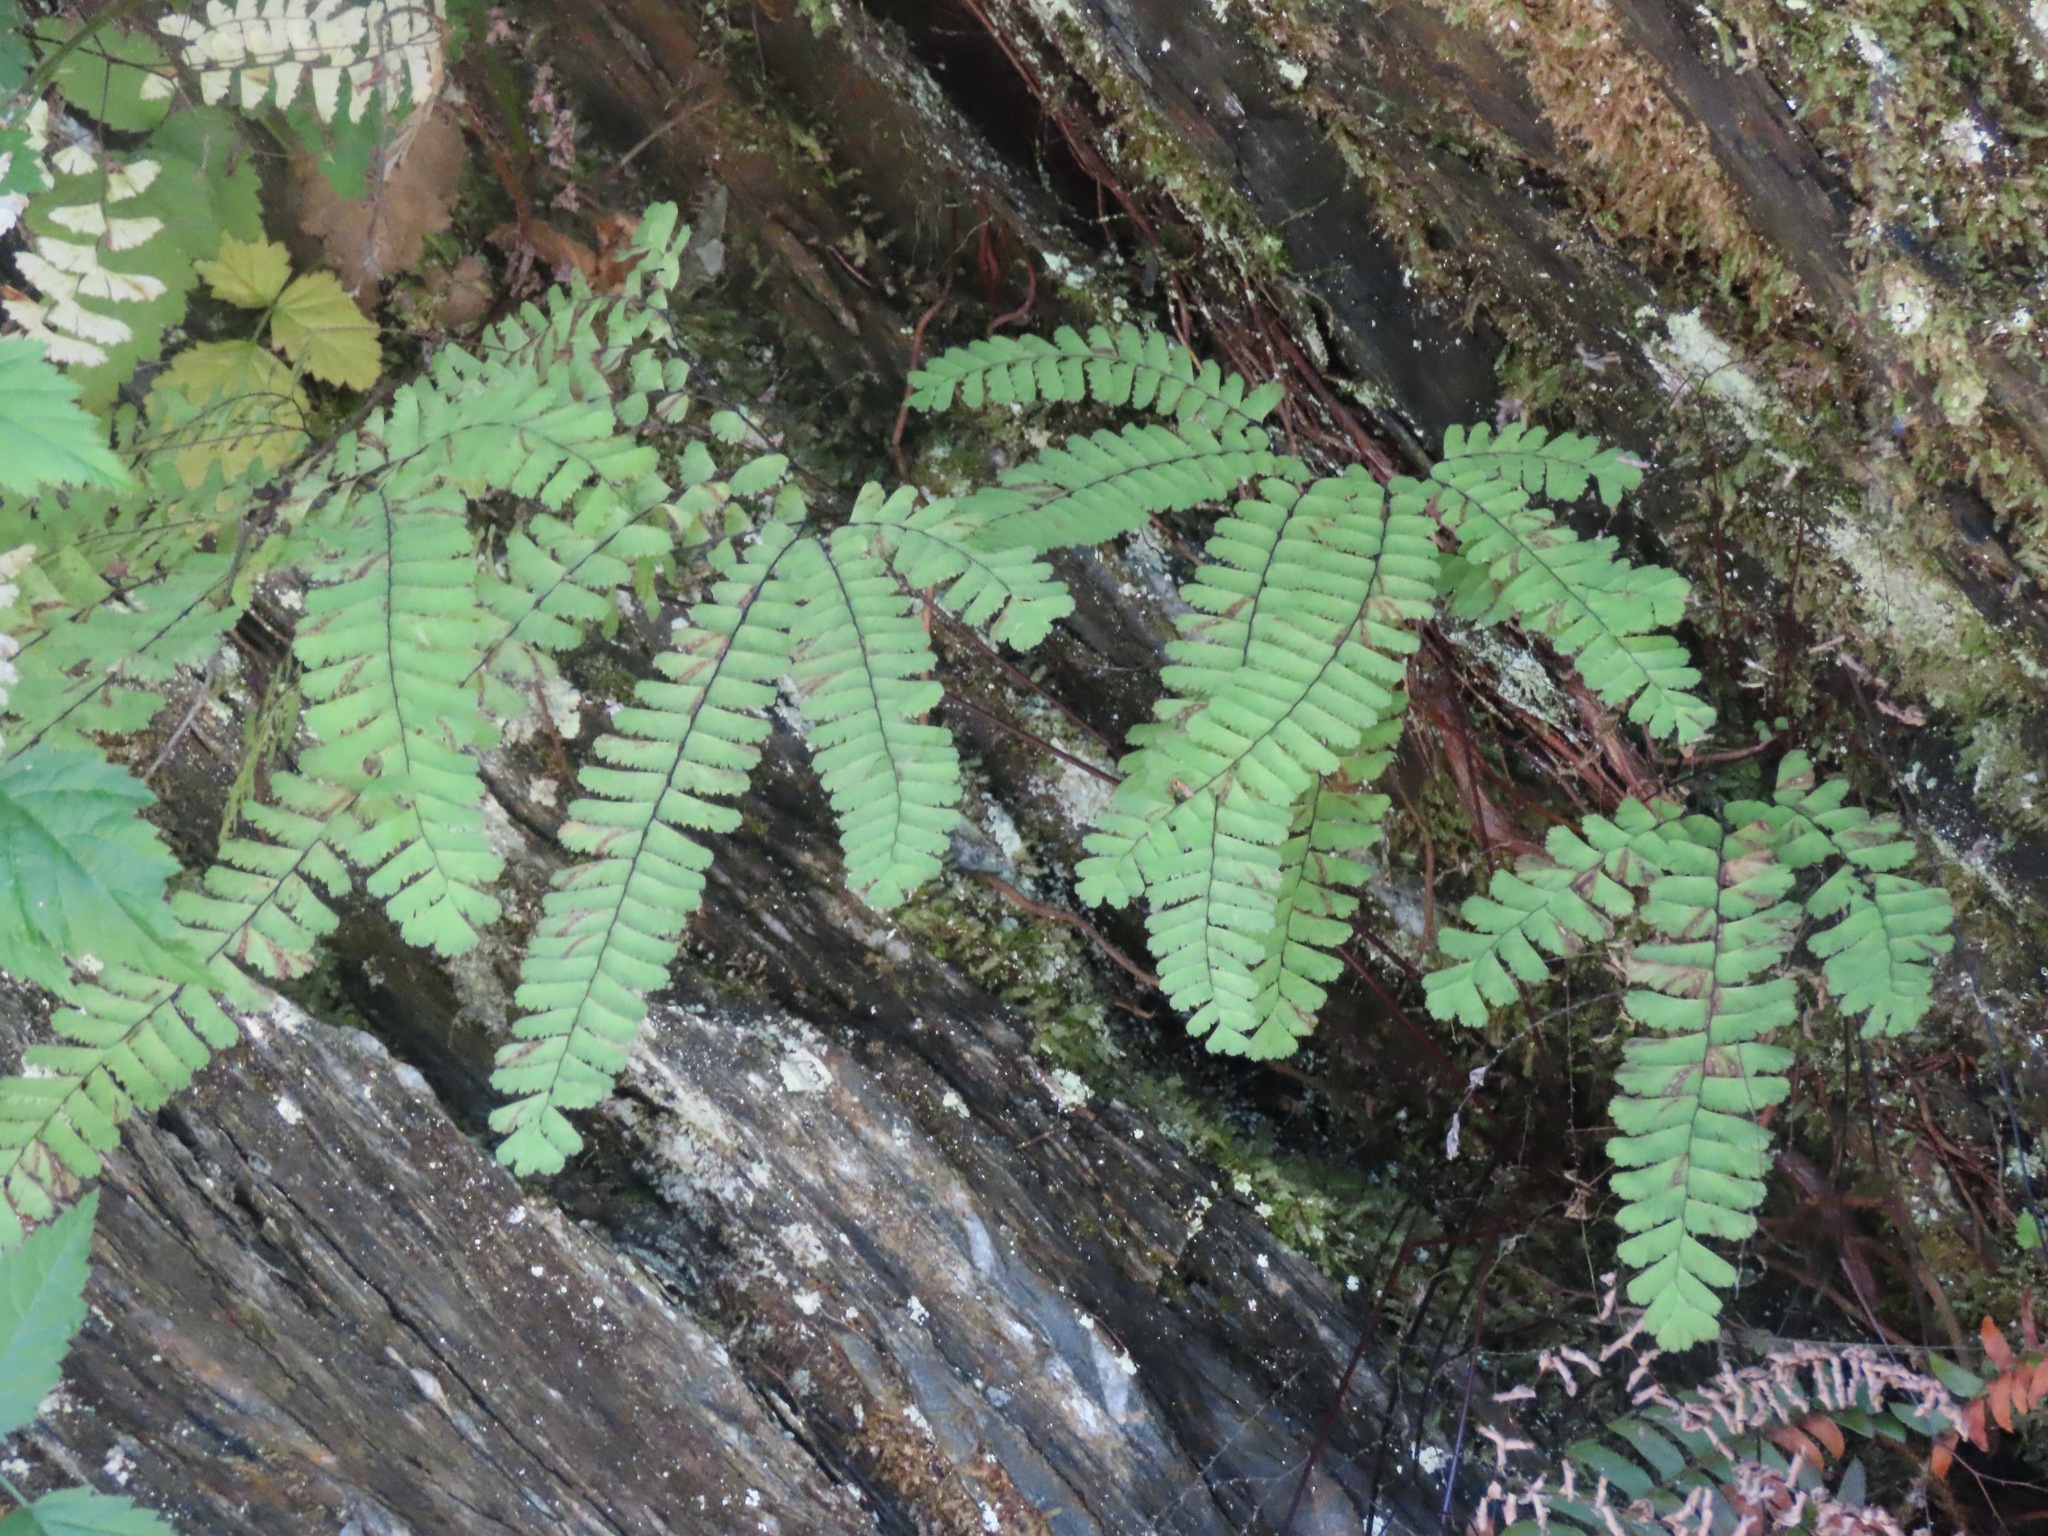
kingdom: Plantae
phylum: Tracheophyta
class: Polypodiopsida
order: Polypodiales
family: Pteridaceae
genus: Adiantum
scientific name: Adiantum aleuticum
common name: Aleutian maidenhair fern
